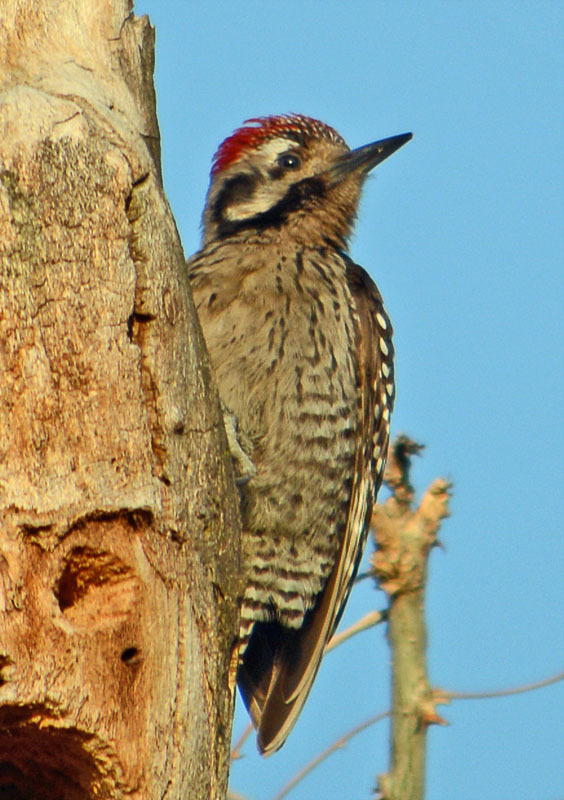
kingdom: Animalia
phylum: Chordata
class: Aves
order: Piciformes
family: Picidae
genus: Dryobates
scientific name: Dryobates scalaris
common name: Ladder-backed woodpecker
